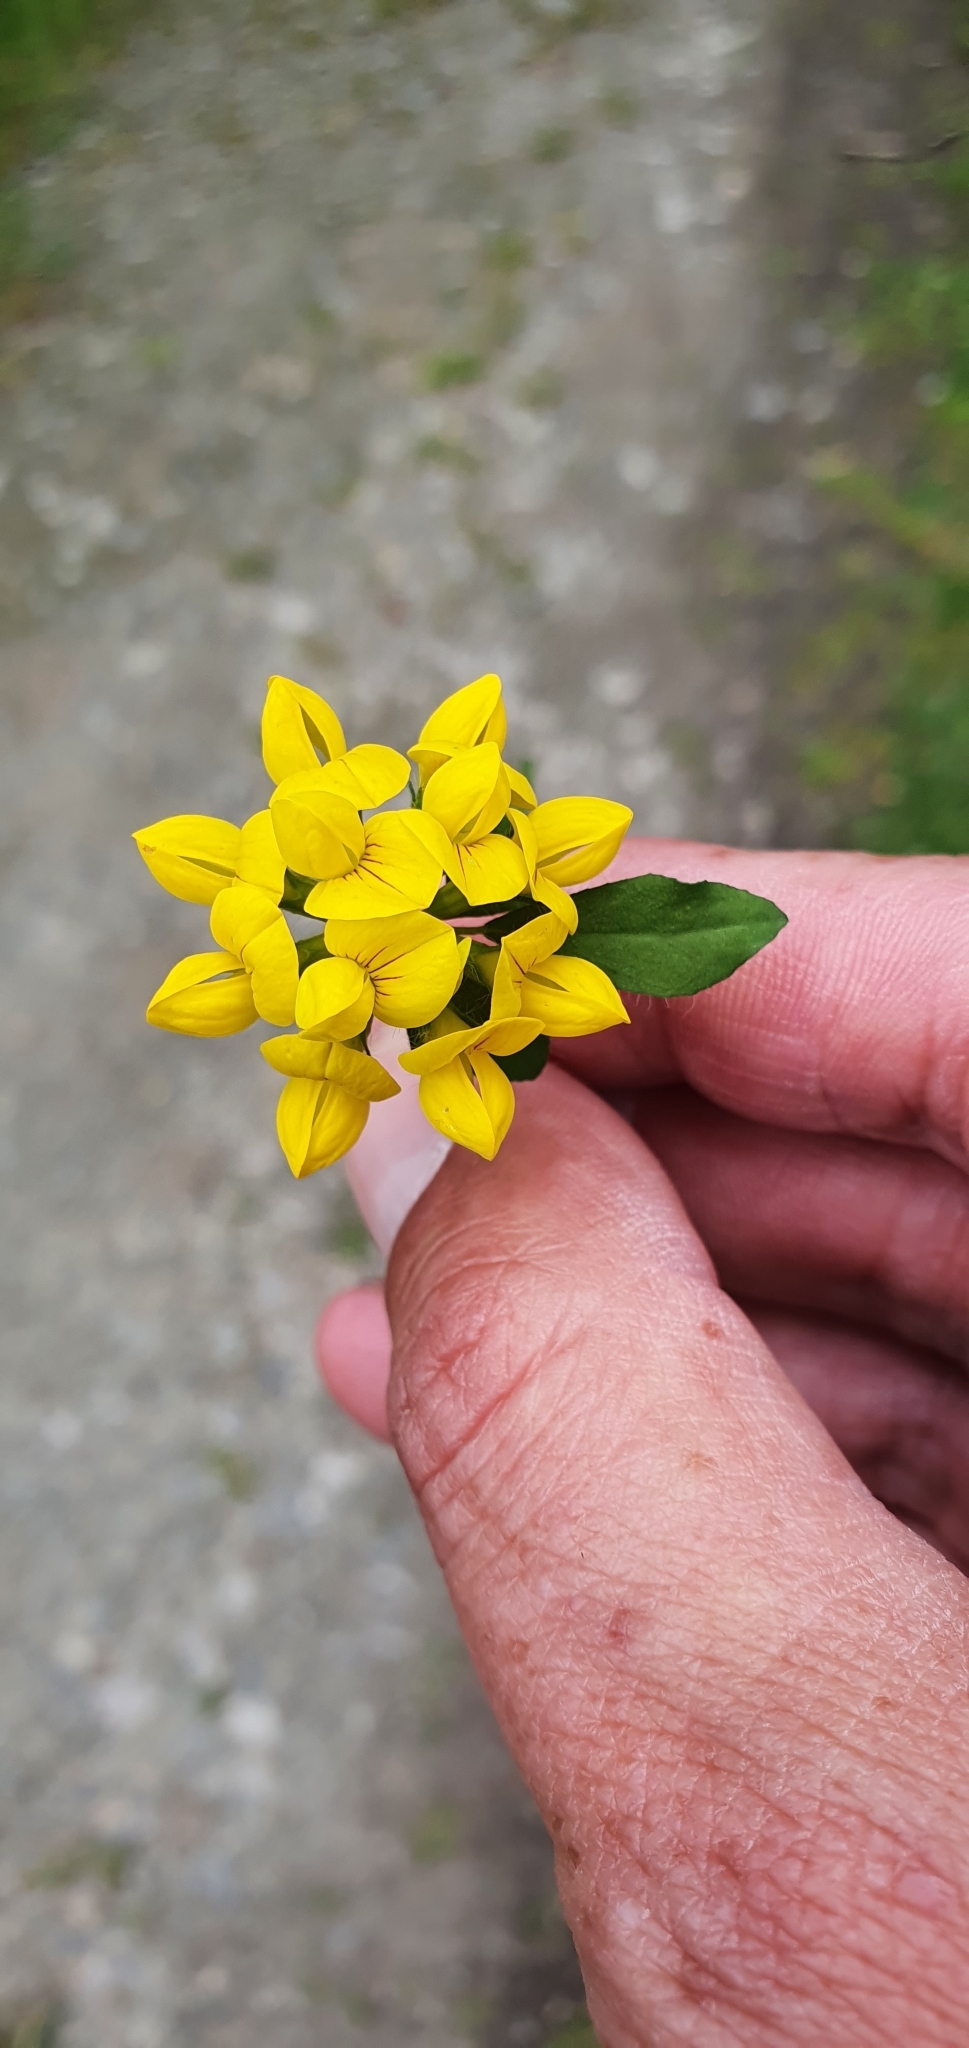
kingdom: Plantae
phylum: Tracheophyta
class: Magnoliopsida
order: Fabales
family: Fabaceae
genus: Lotus
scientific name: Lotus pedunculatus
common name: Greater birdsfoot-trefoil
